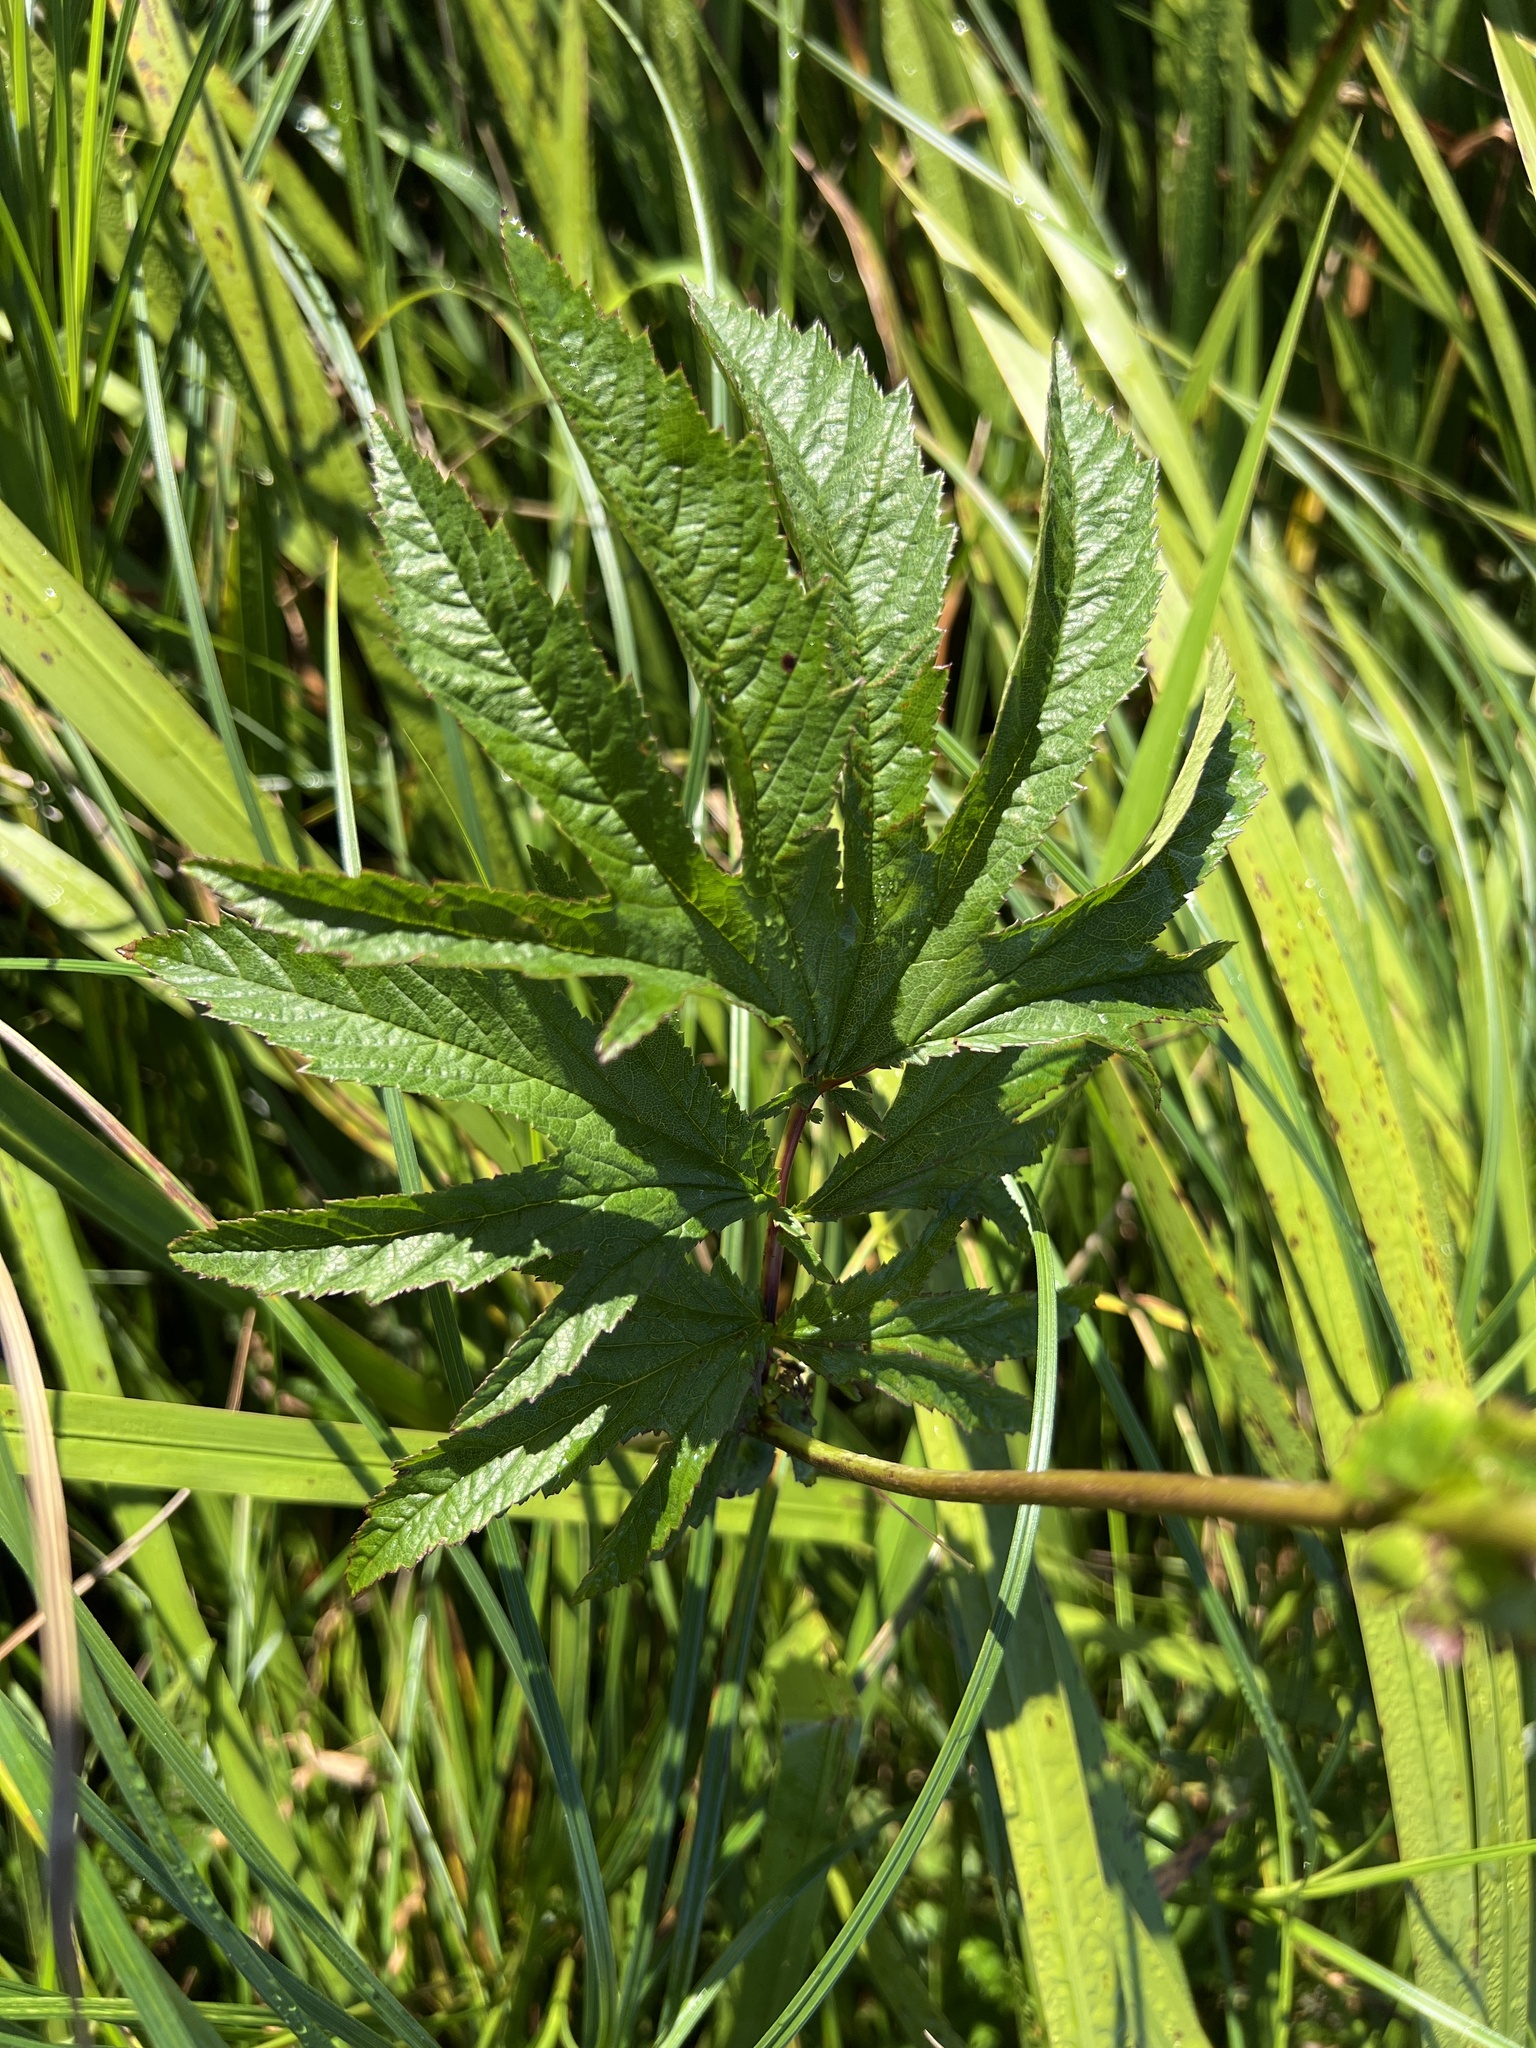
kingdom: Plantae
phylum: Tracheophyta
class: Magnoliopsida
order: Rosales
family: Rosaceae
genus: Filipendula
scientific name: Filipendula rubra
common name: Queen-of-the-prairie
